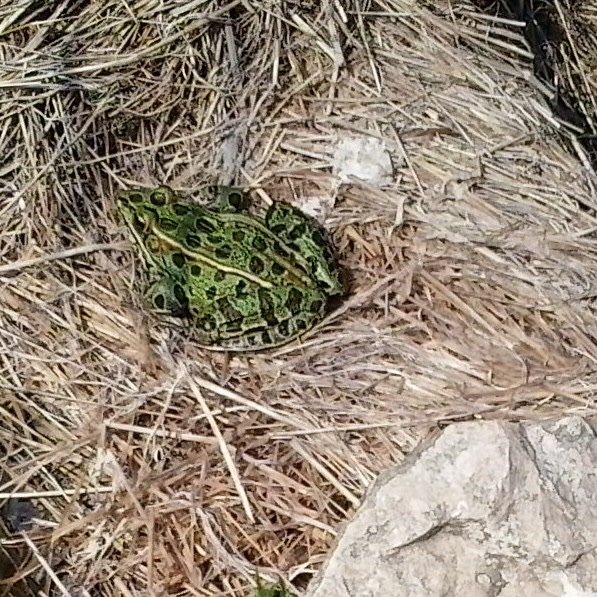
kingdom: Animalia
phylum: Chordata
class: Amphibia
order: Anura
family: Ranidae
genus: Lithobates
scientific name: Lithobates pipiens
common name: Northern leopard frog
